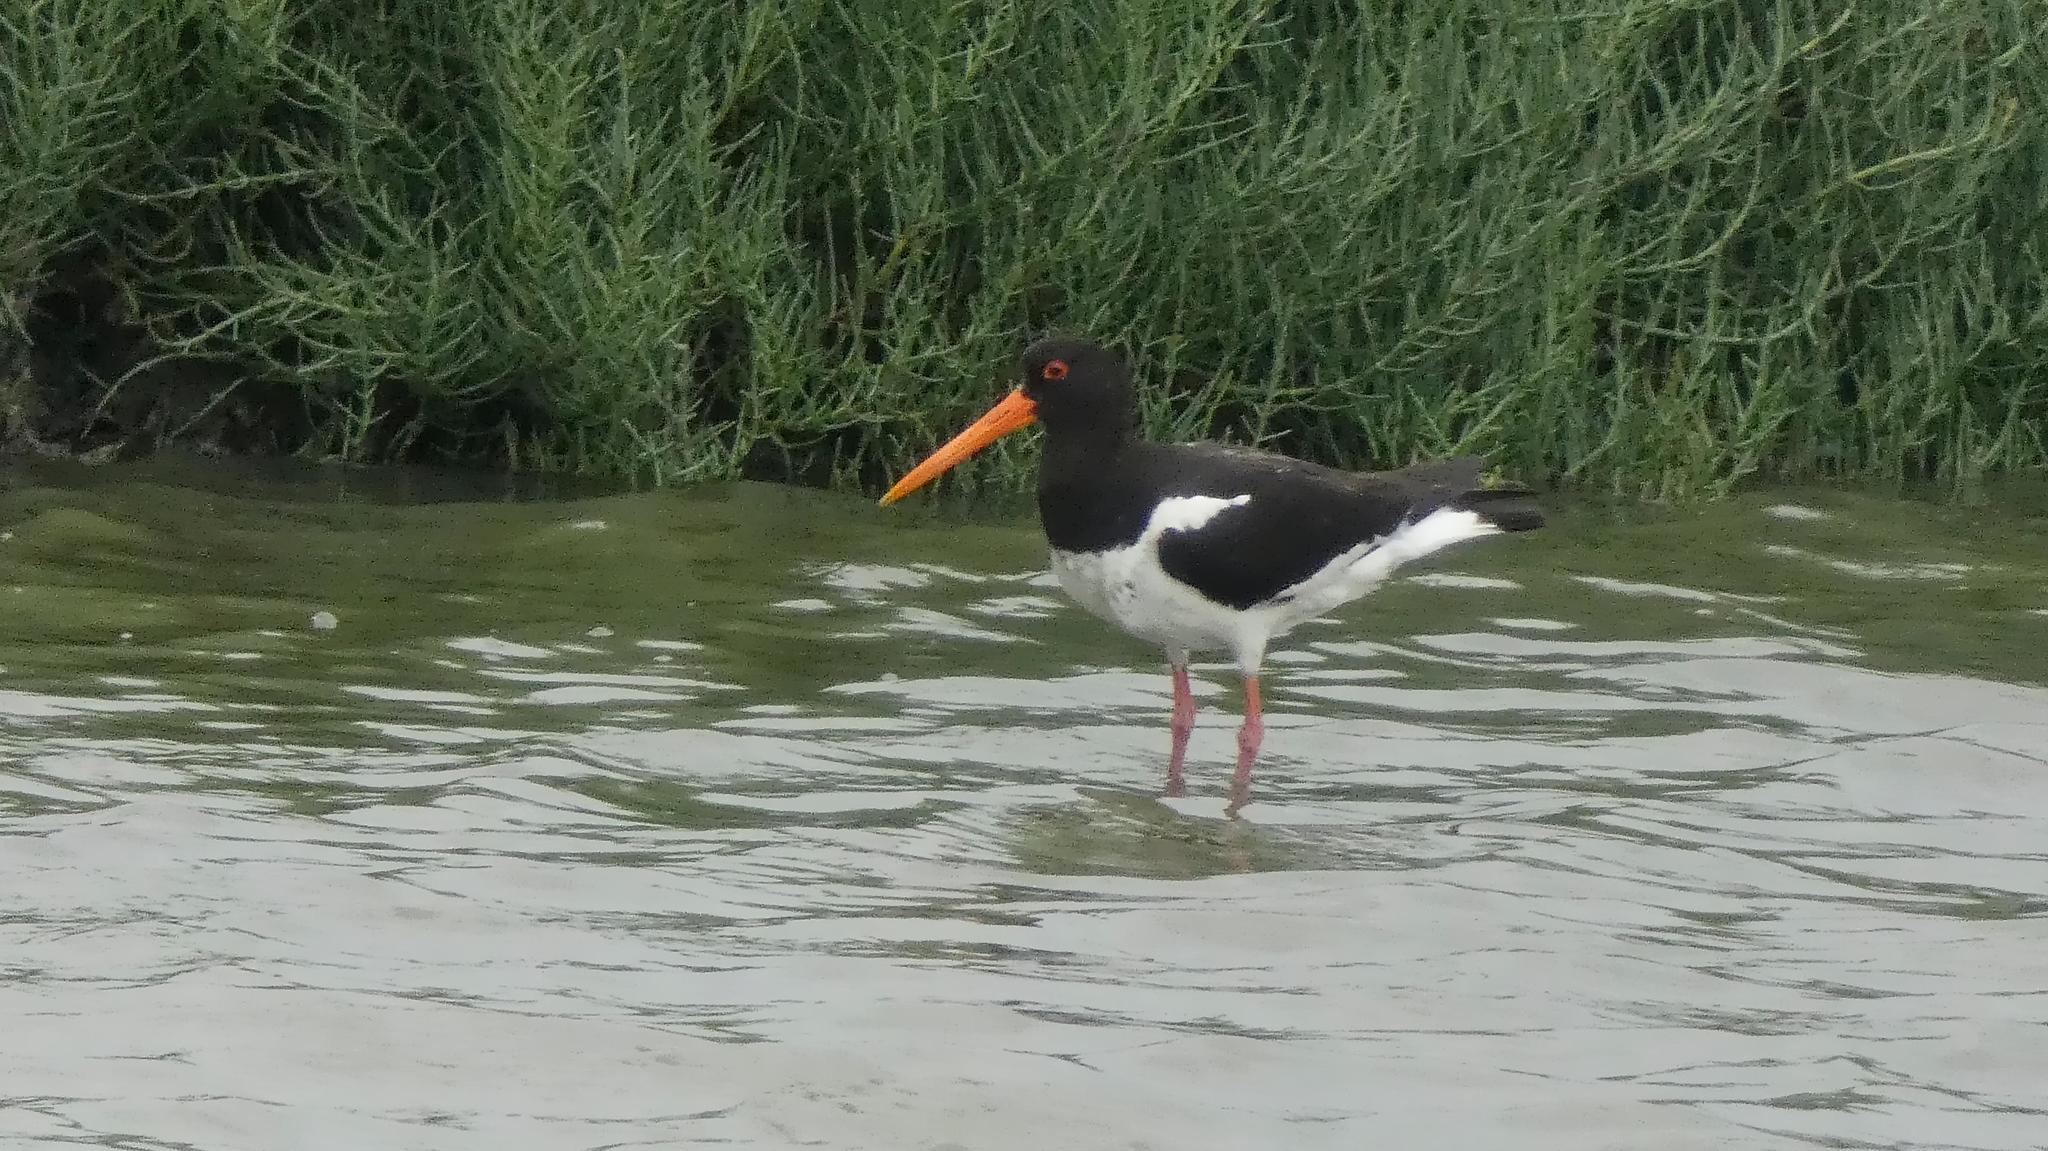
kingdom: Animalia
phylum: Chordata
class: Aves
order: Charadriiformes
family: Haematopodidae
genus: Haematopus
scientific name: Haematopus ostralegus
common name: Eurasian oystercatcher
